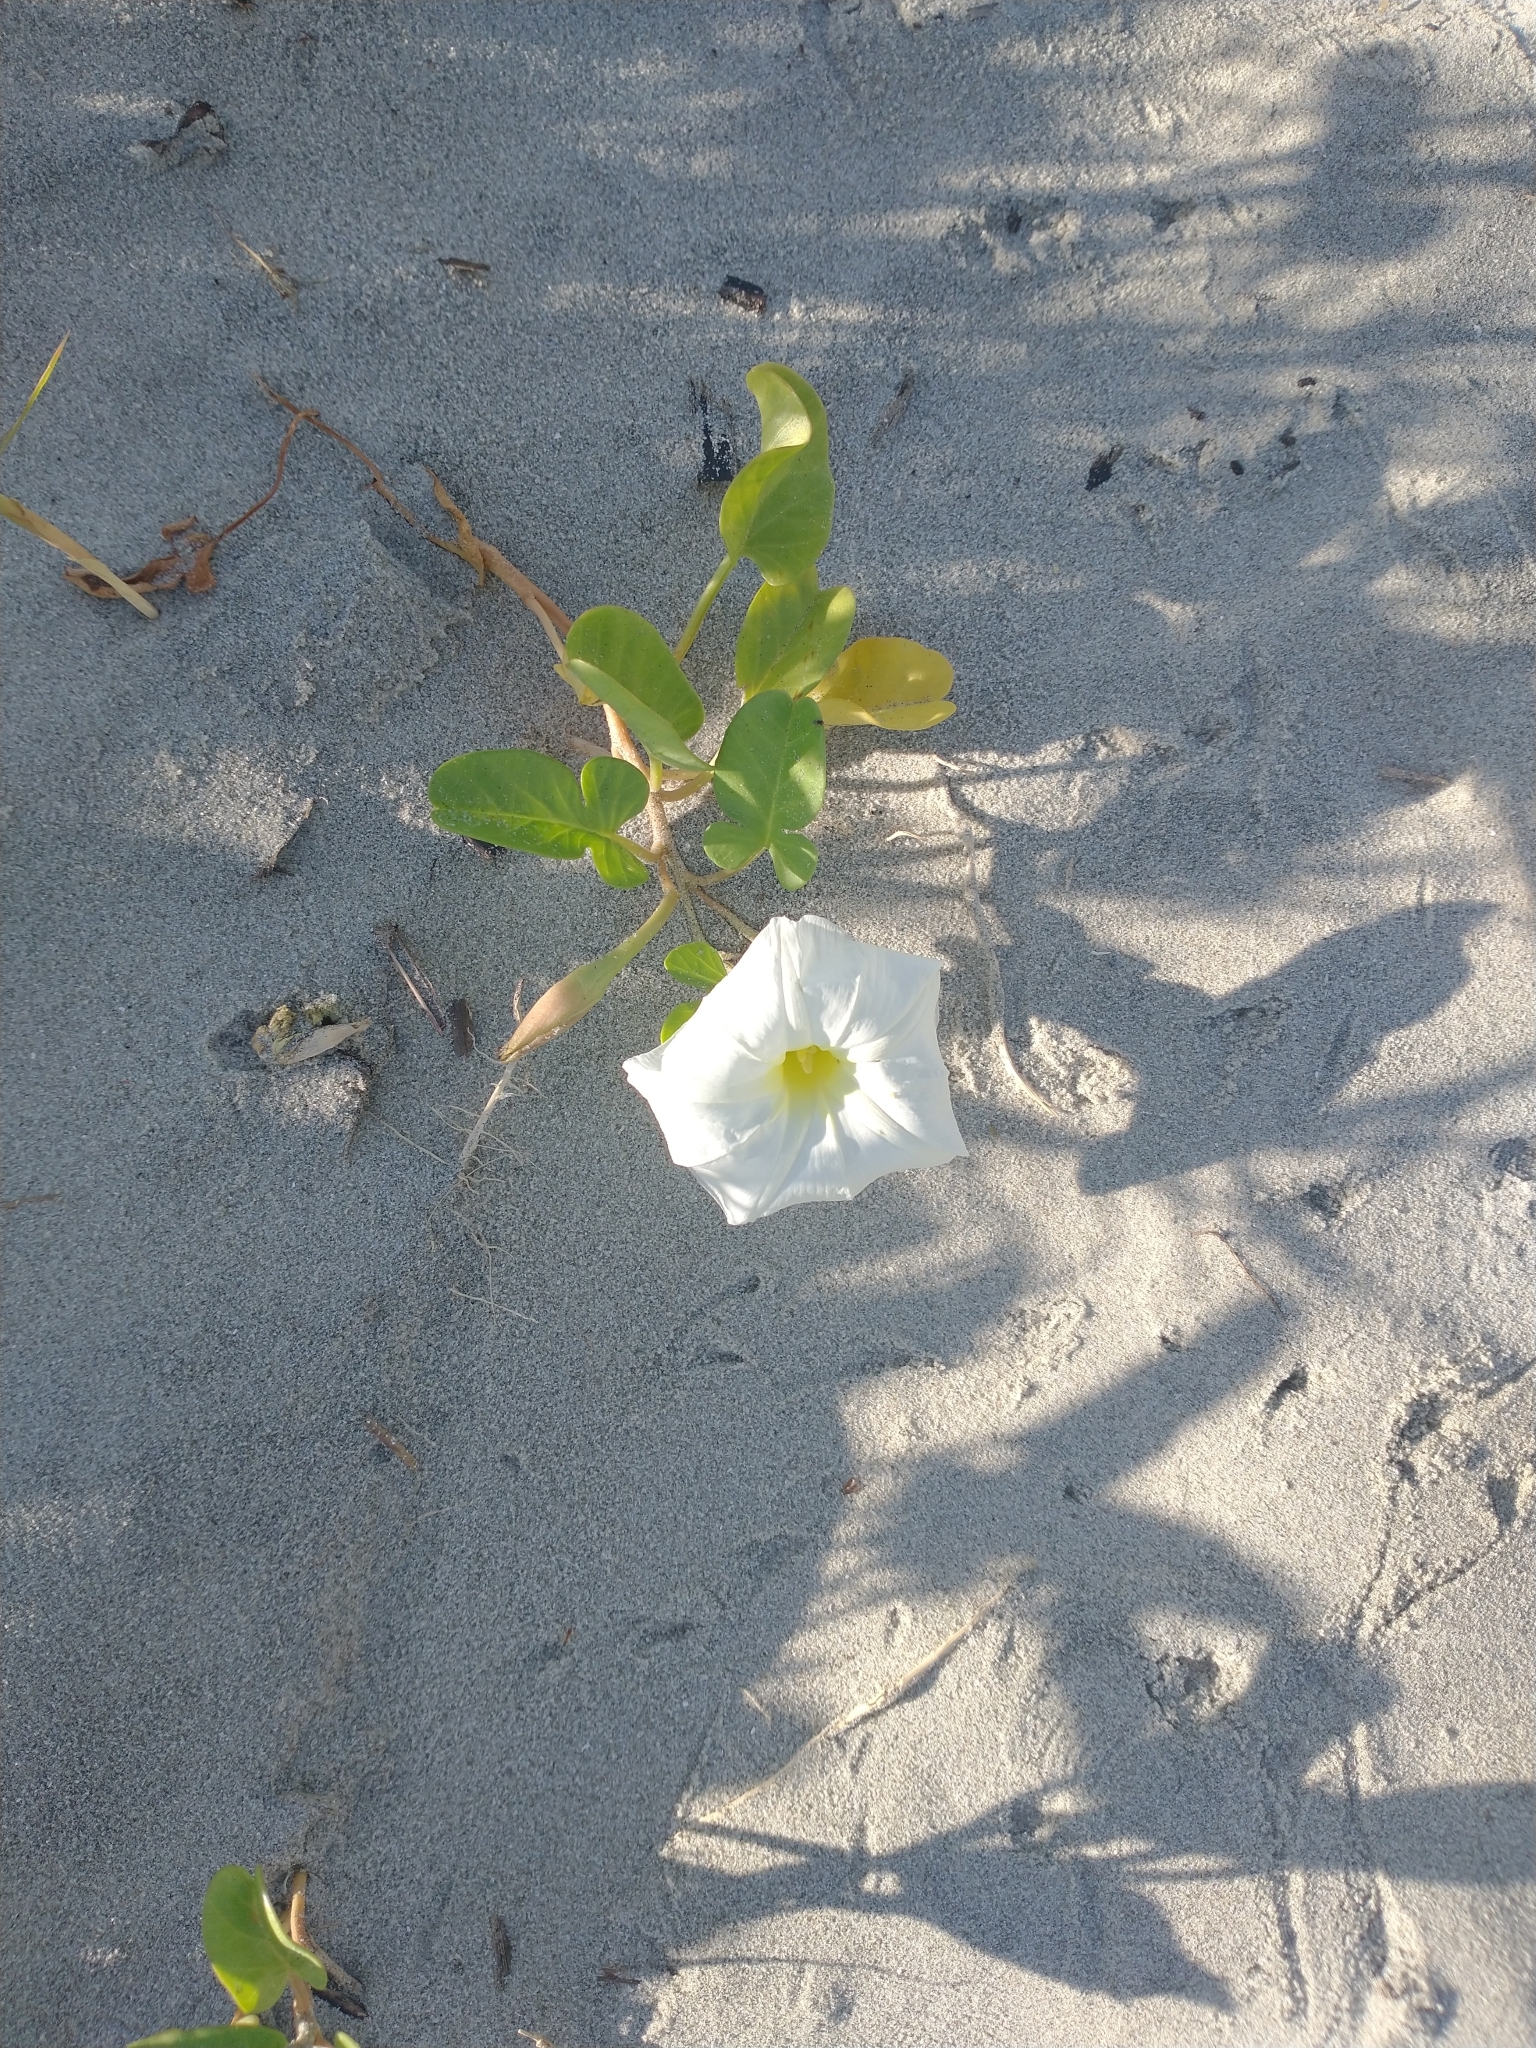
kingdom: Plantae
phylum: Tracheophyta
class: Magnoliopsida
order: Solanales
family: Convolvulaceae
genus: Ipomoea
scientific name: Ipomoea imperati
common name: Fiddle-leaf morning-glory
